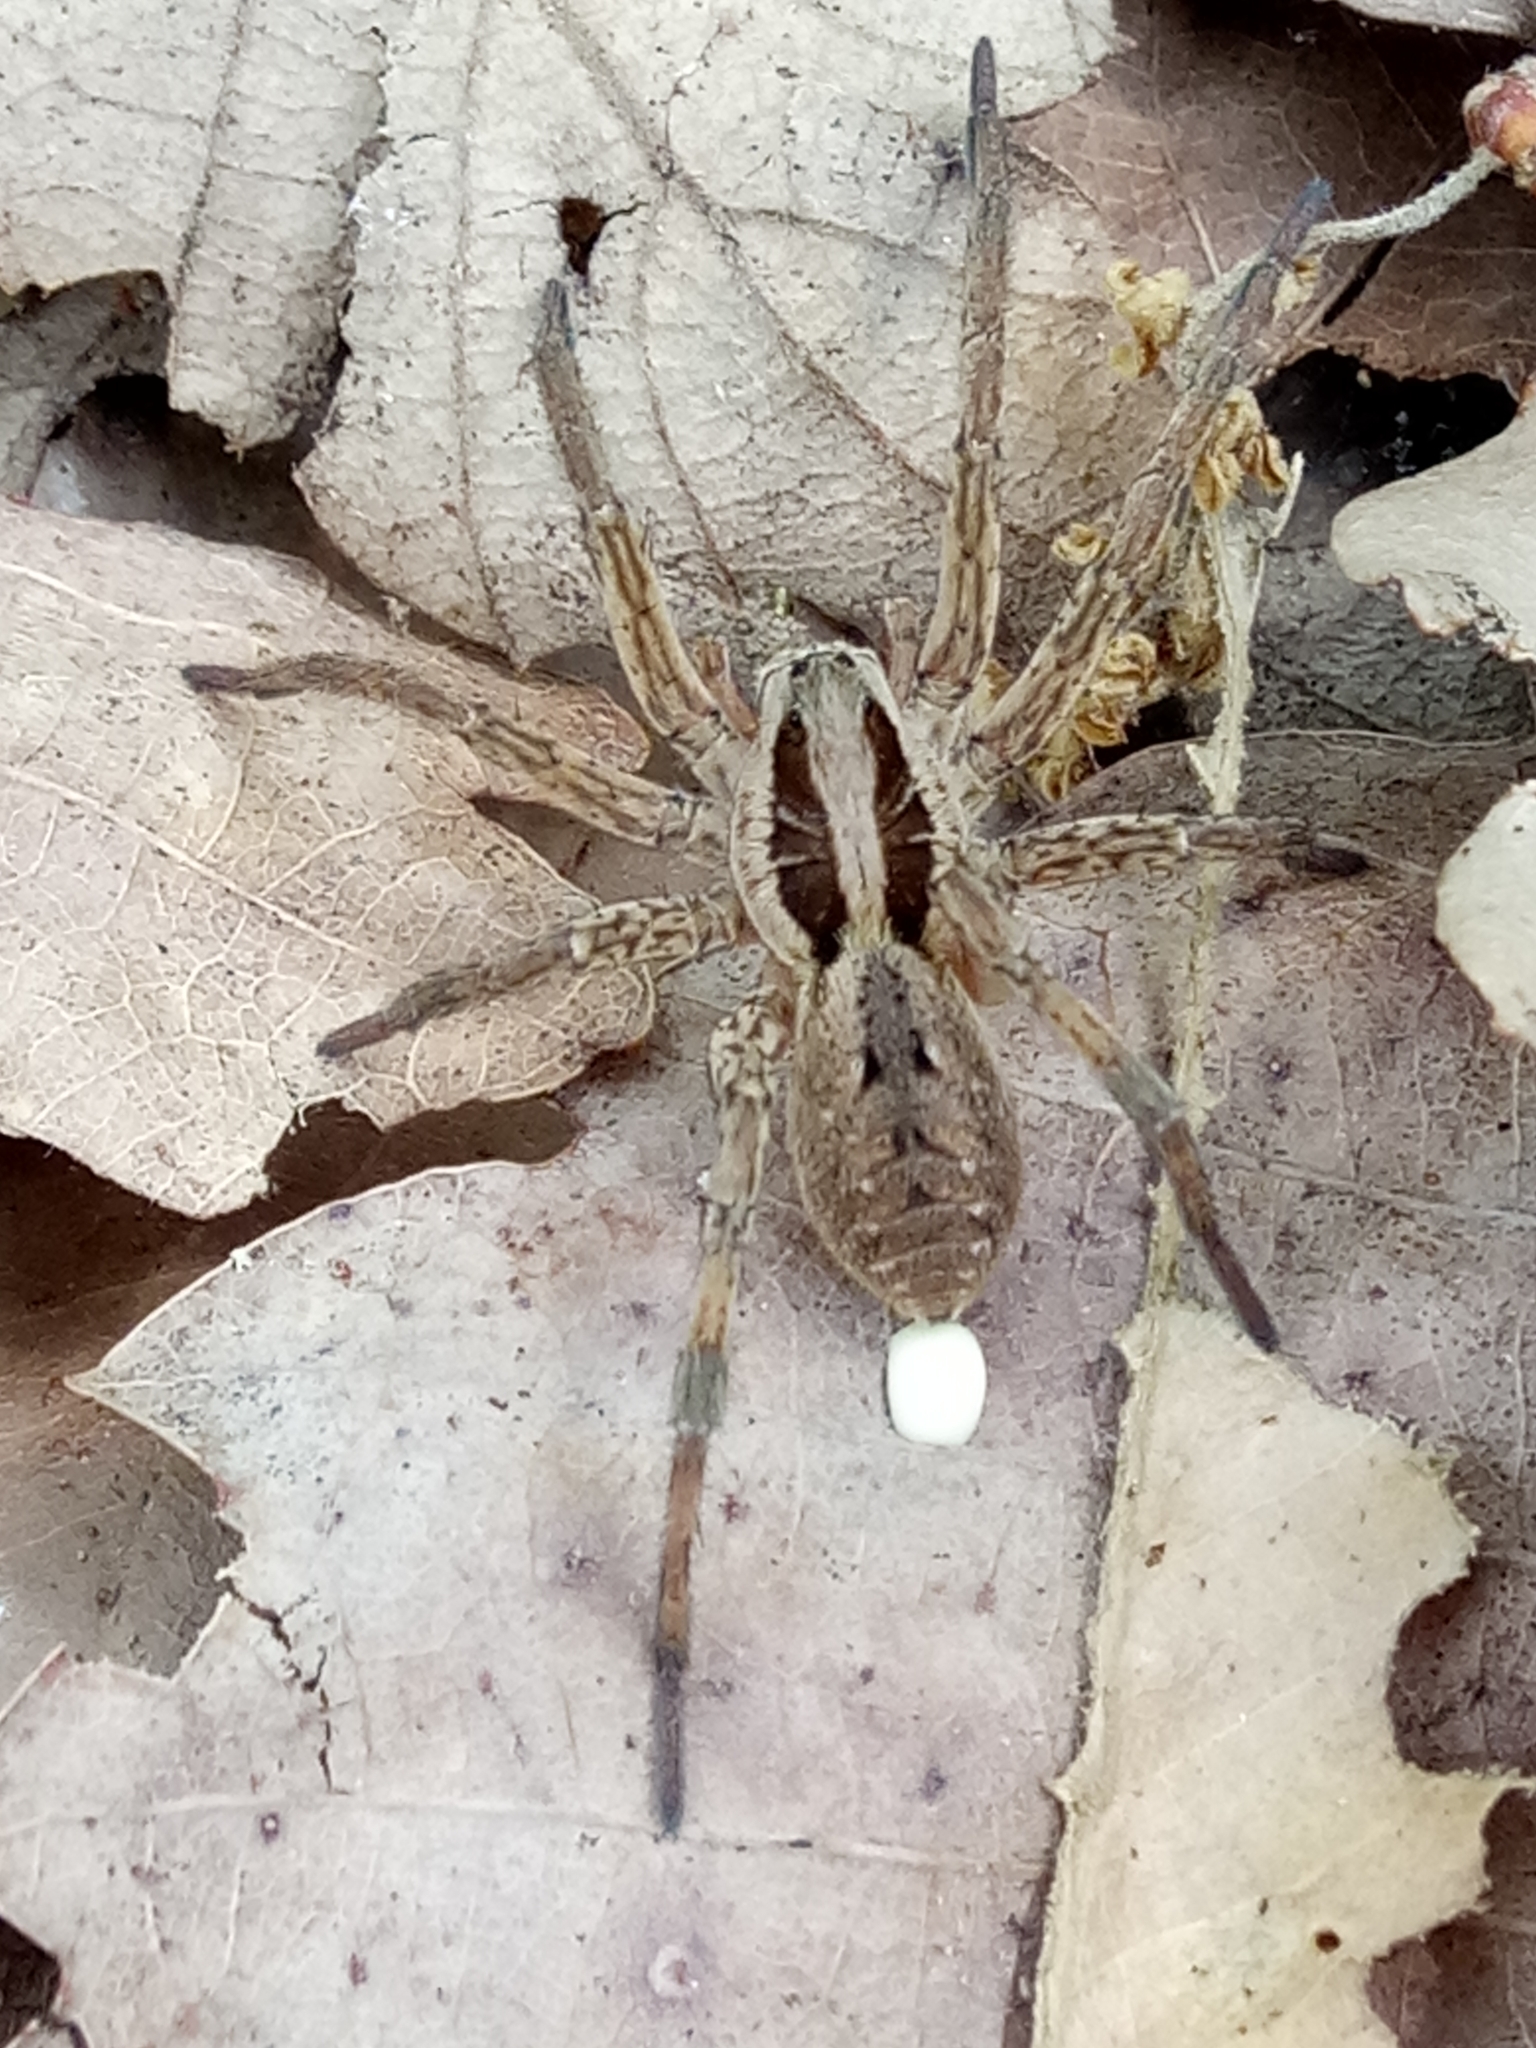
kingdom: Animalia
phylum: Arthropoda
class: Arachnida
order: Araneae
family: Lycosidae
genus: Hogna
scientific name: Hogna radiata
